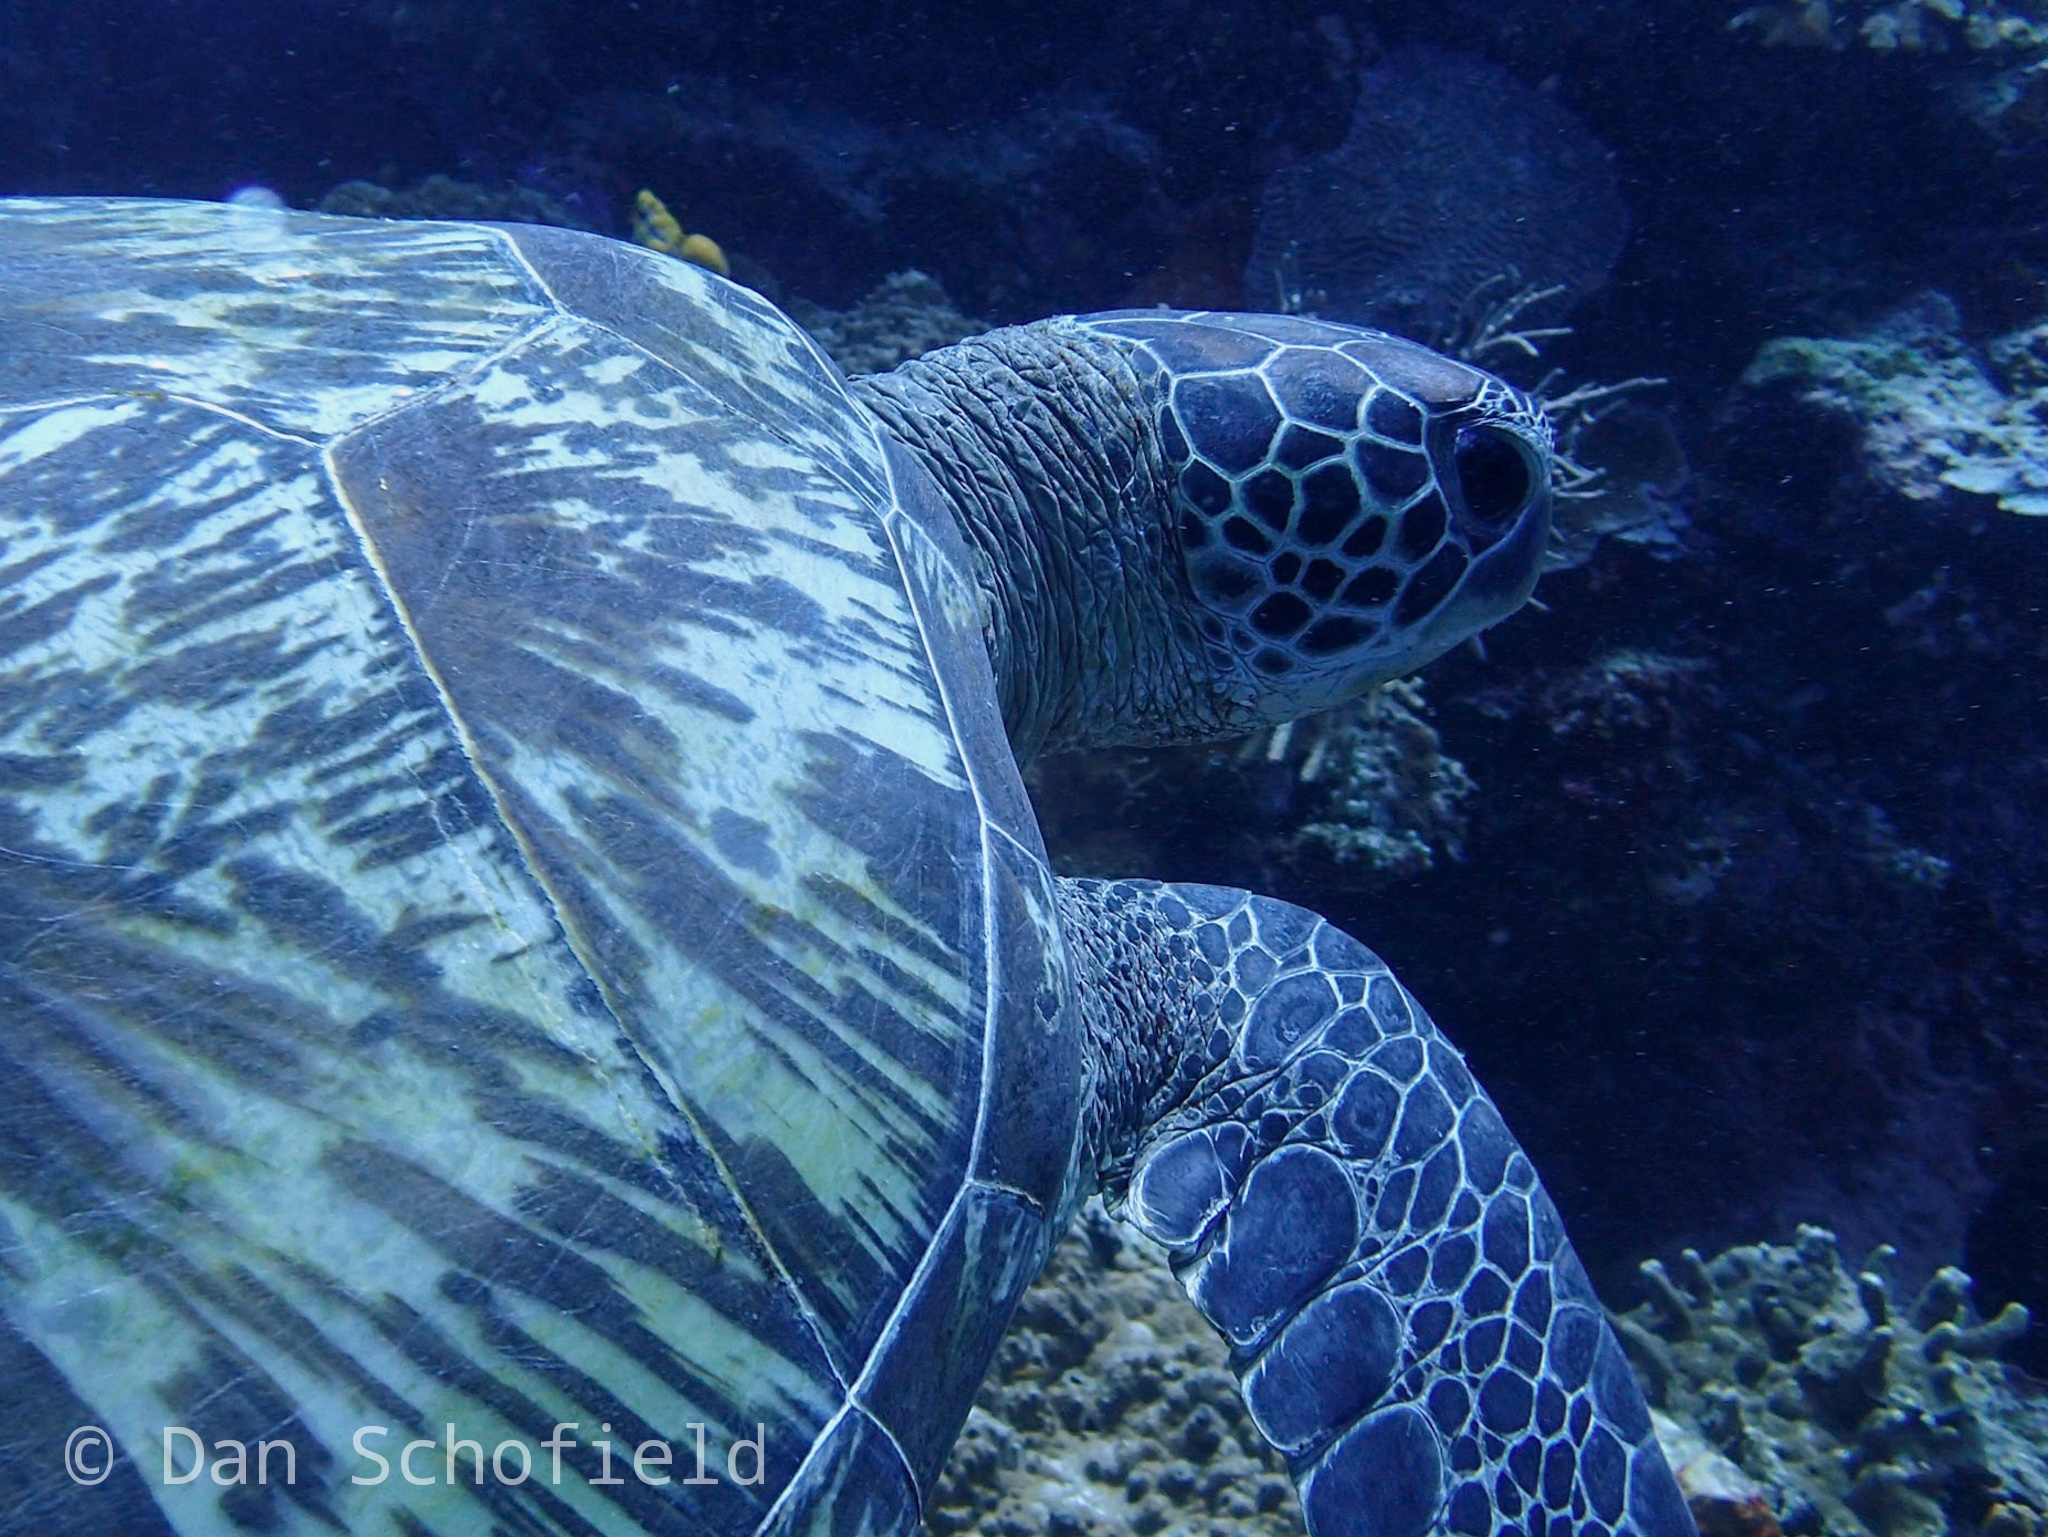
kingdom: Animalia
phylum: Chordata
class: Testudines
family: Cheloniidae
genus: Chelonia
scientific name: Chelonia mydas
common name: Green turtle
